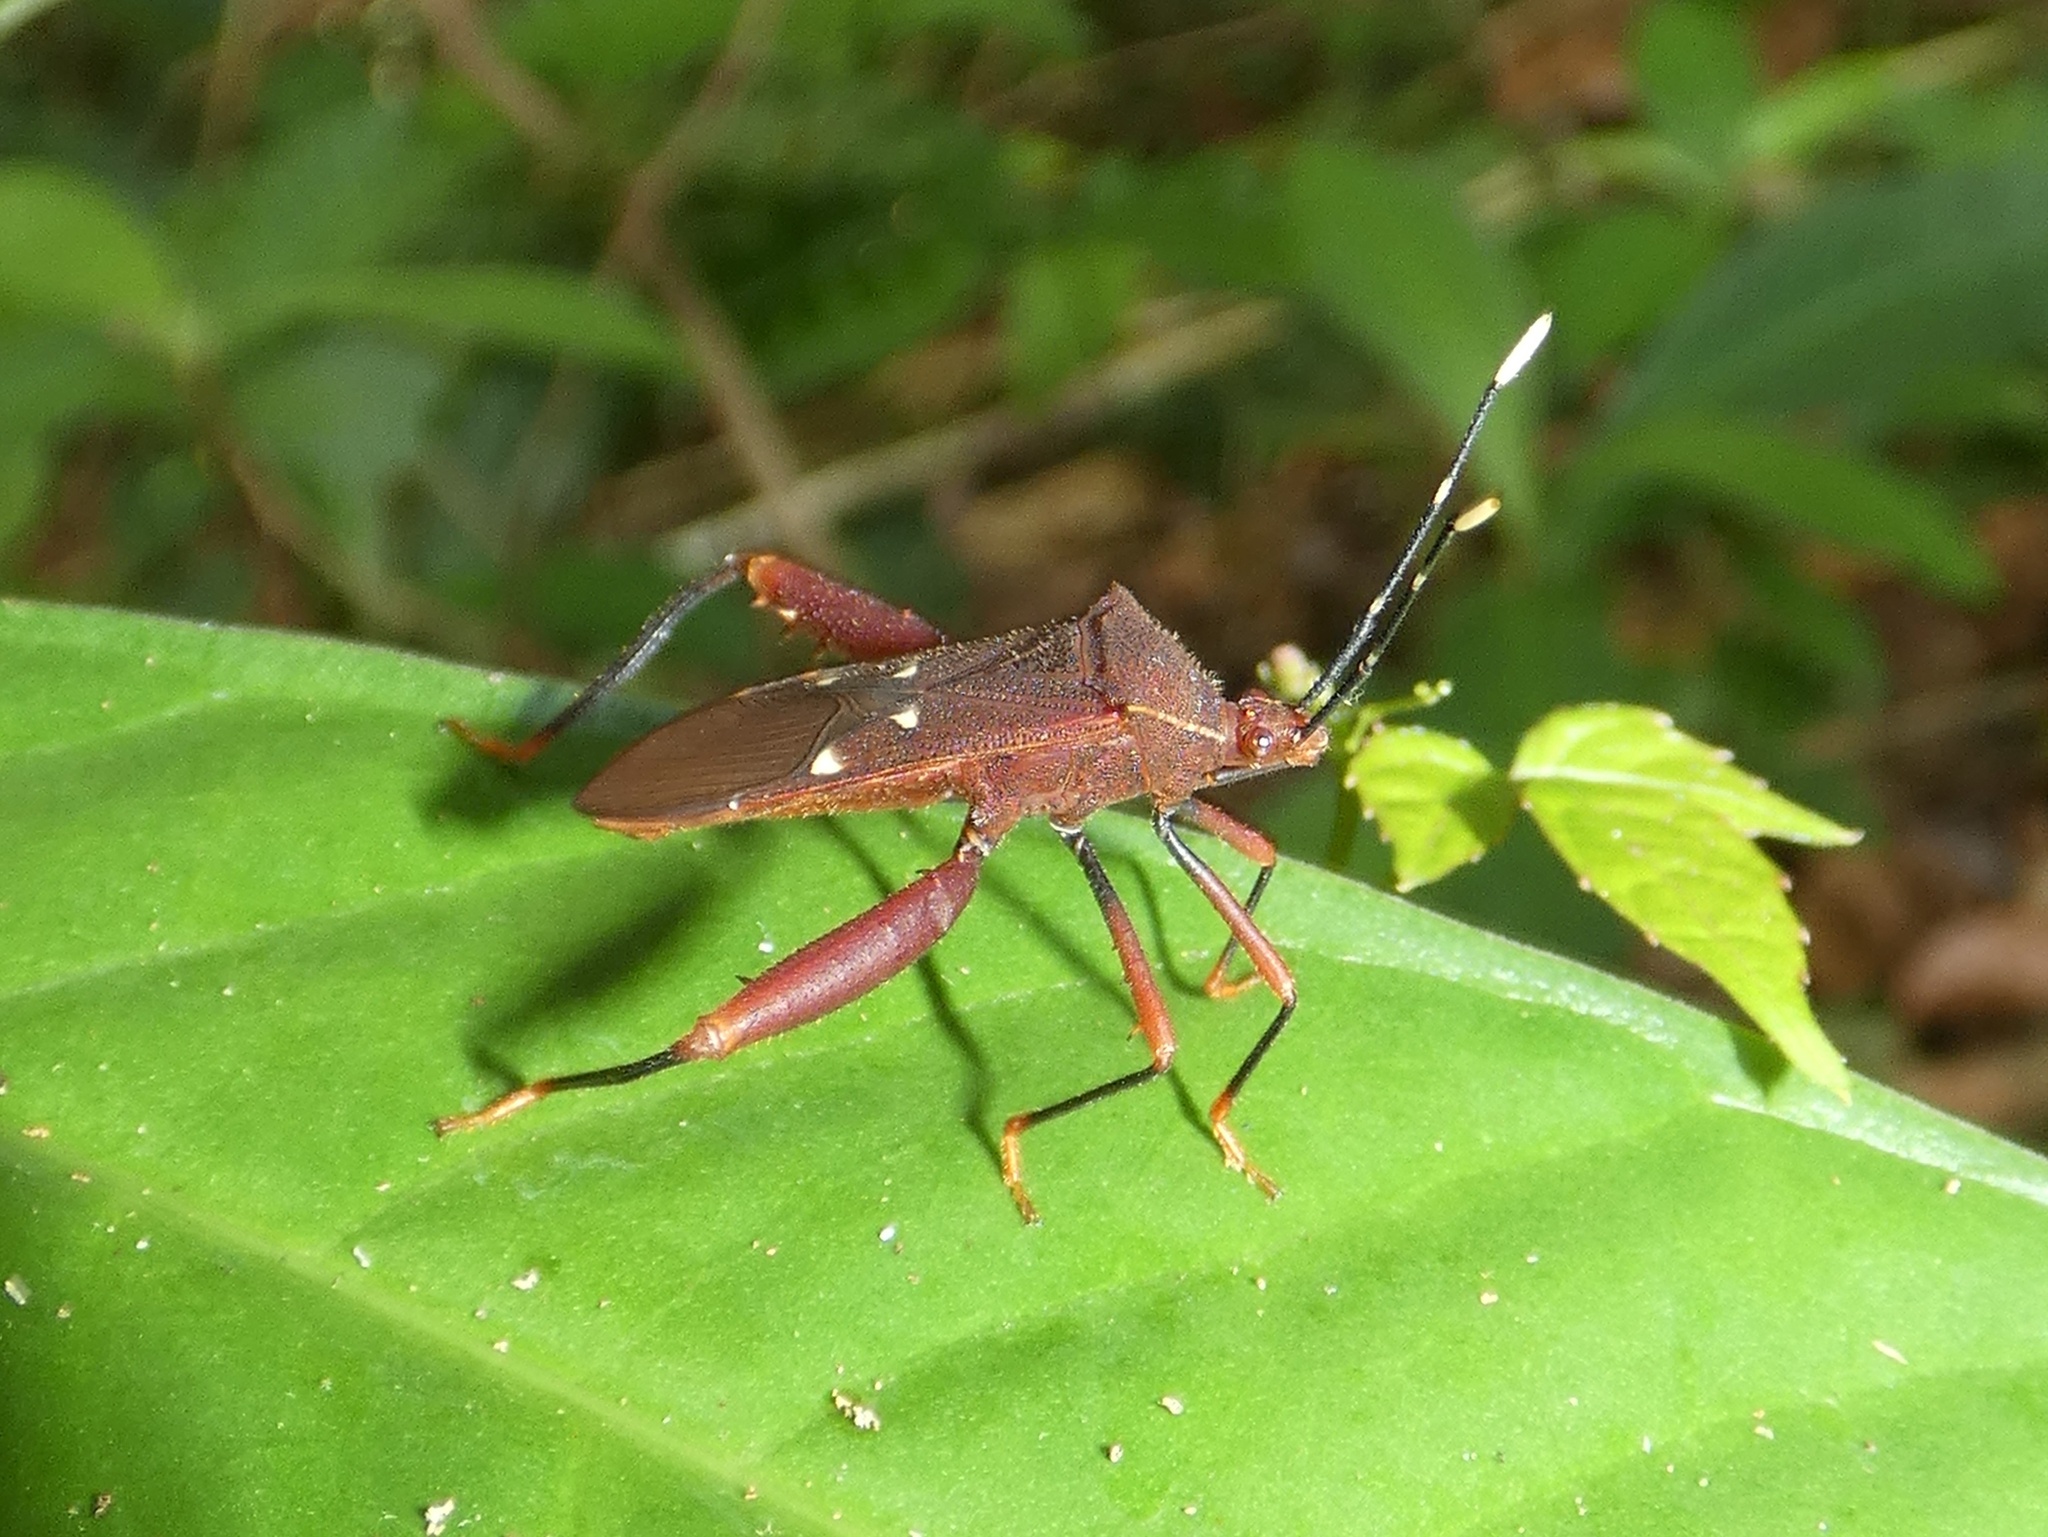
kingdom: Animalia
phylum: Arthropoda
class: Insecta
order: Hemiptera
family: Coreidae
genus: Leptoscelis
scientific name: Leptoscelis quadrisignatus
